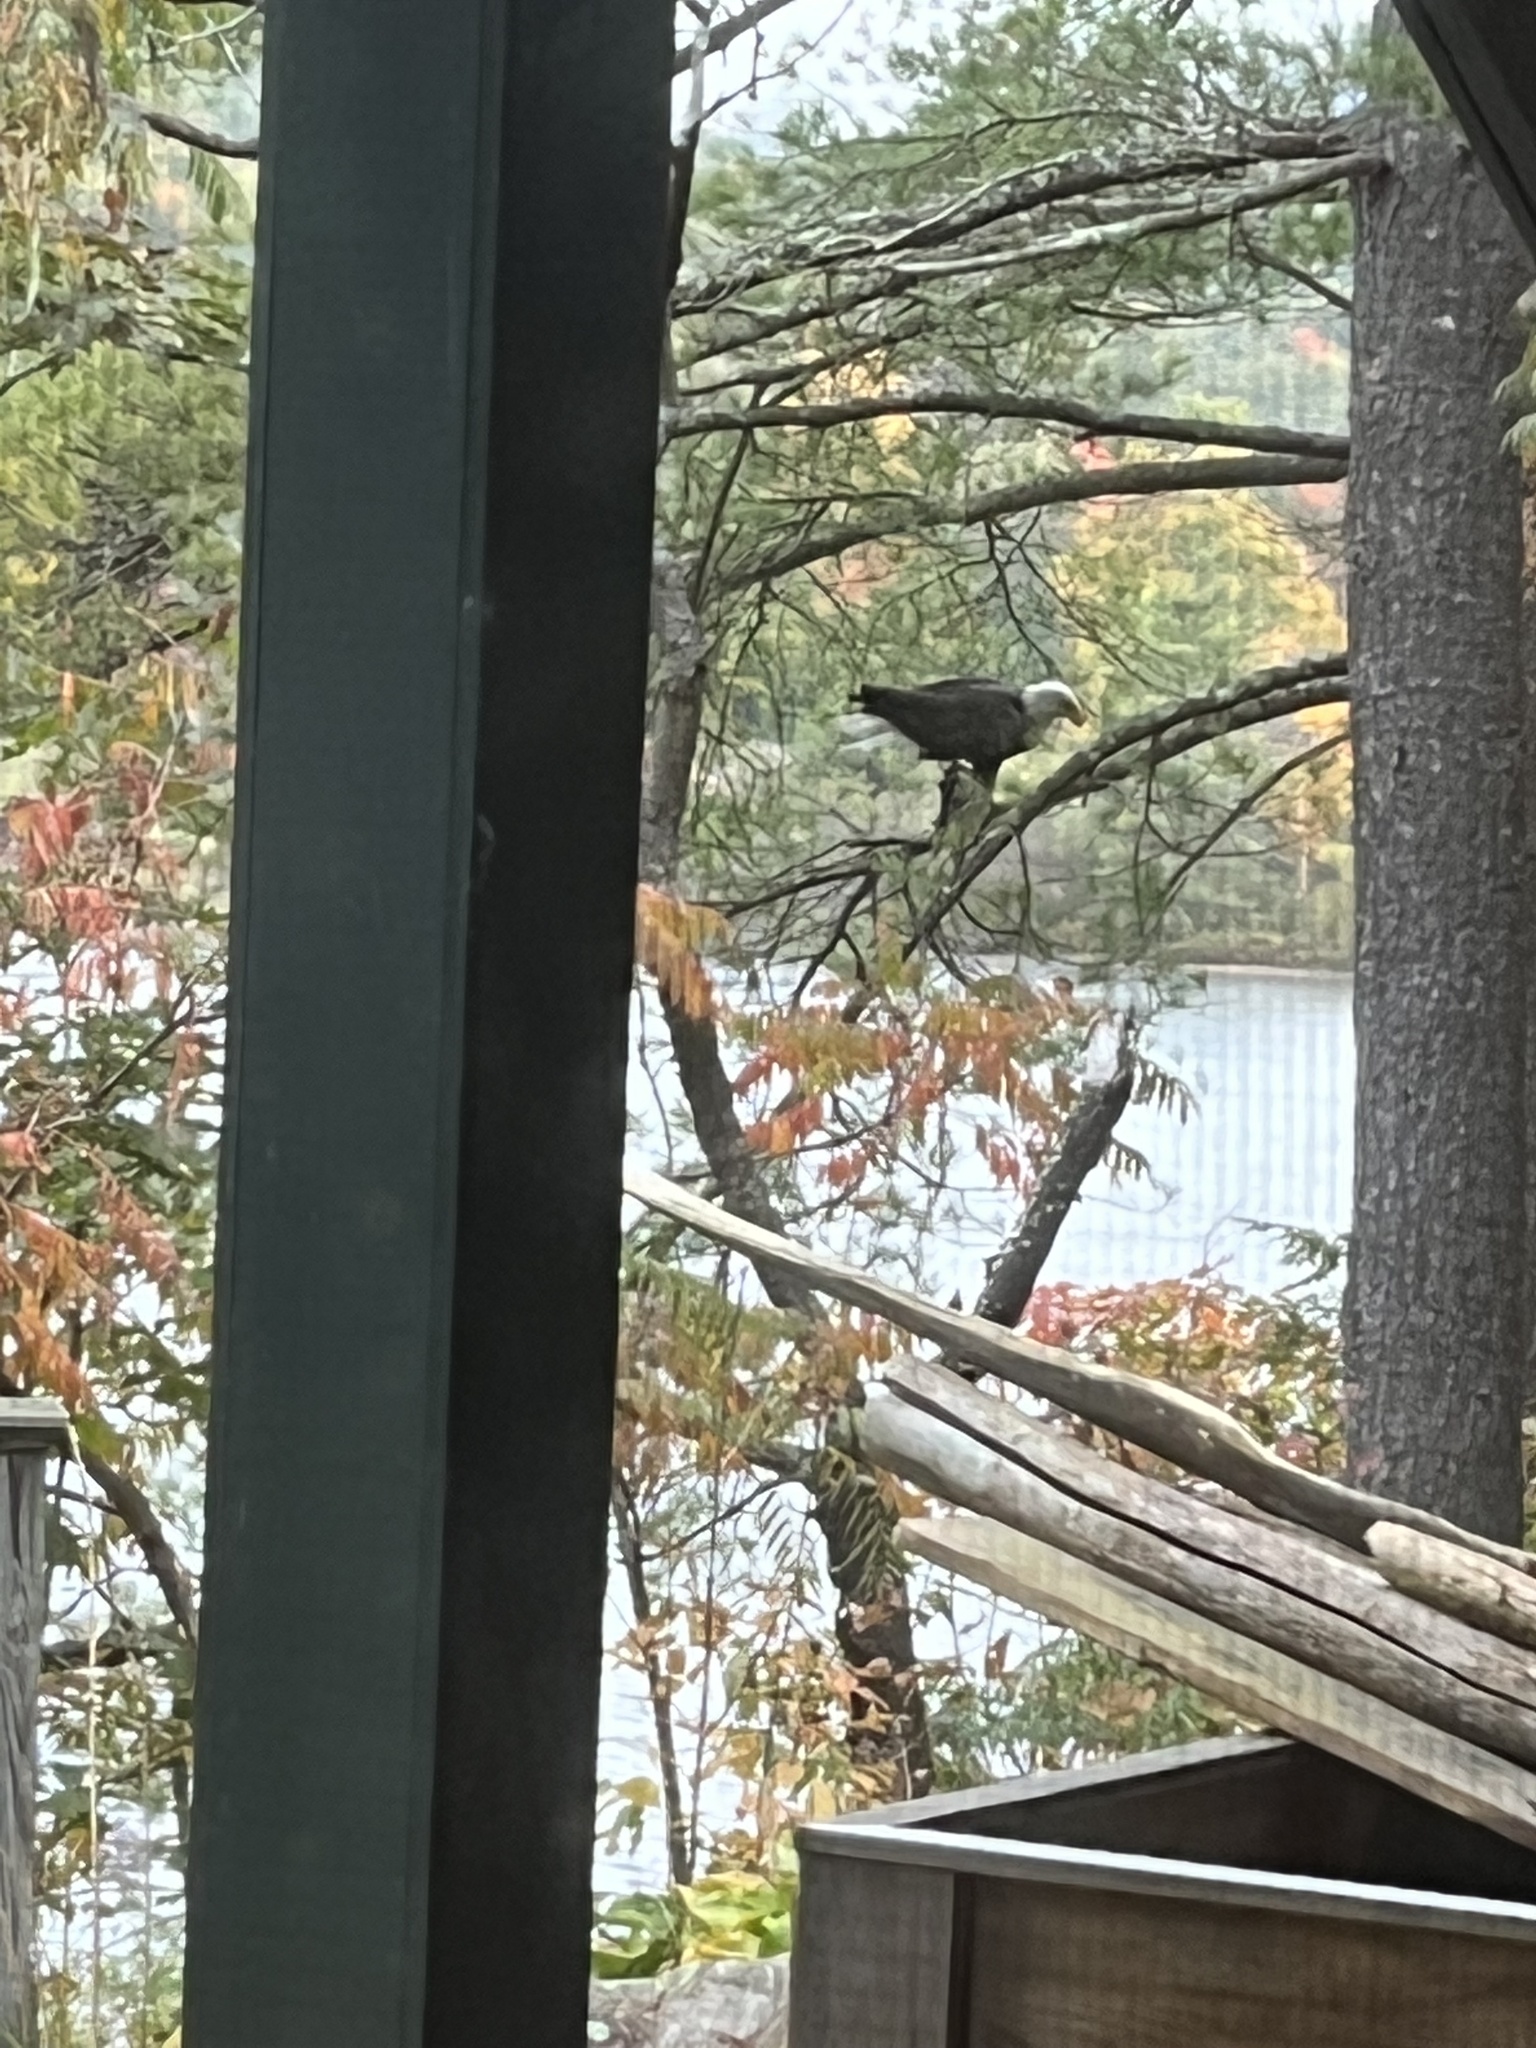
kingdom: Animalia
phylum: Chordata
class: Aves
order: Accipitriformes
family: Accipitridae
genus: Haliaeetus
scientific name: Haliaeetus leucocephalus
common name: Bald eagle
